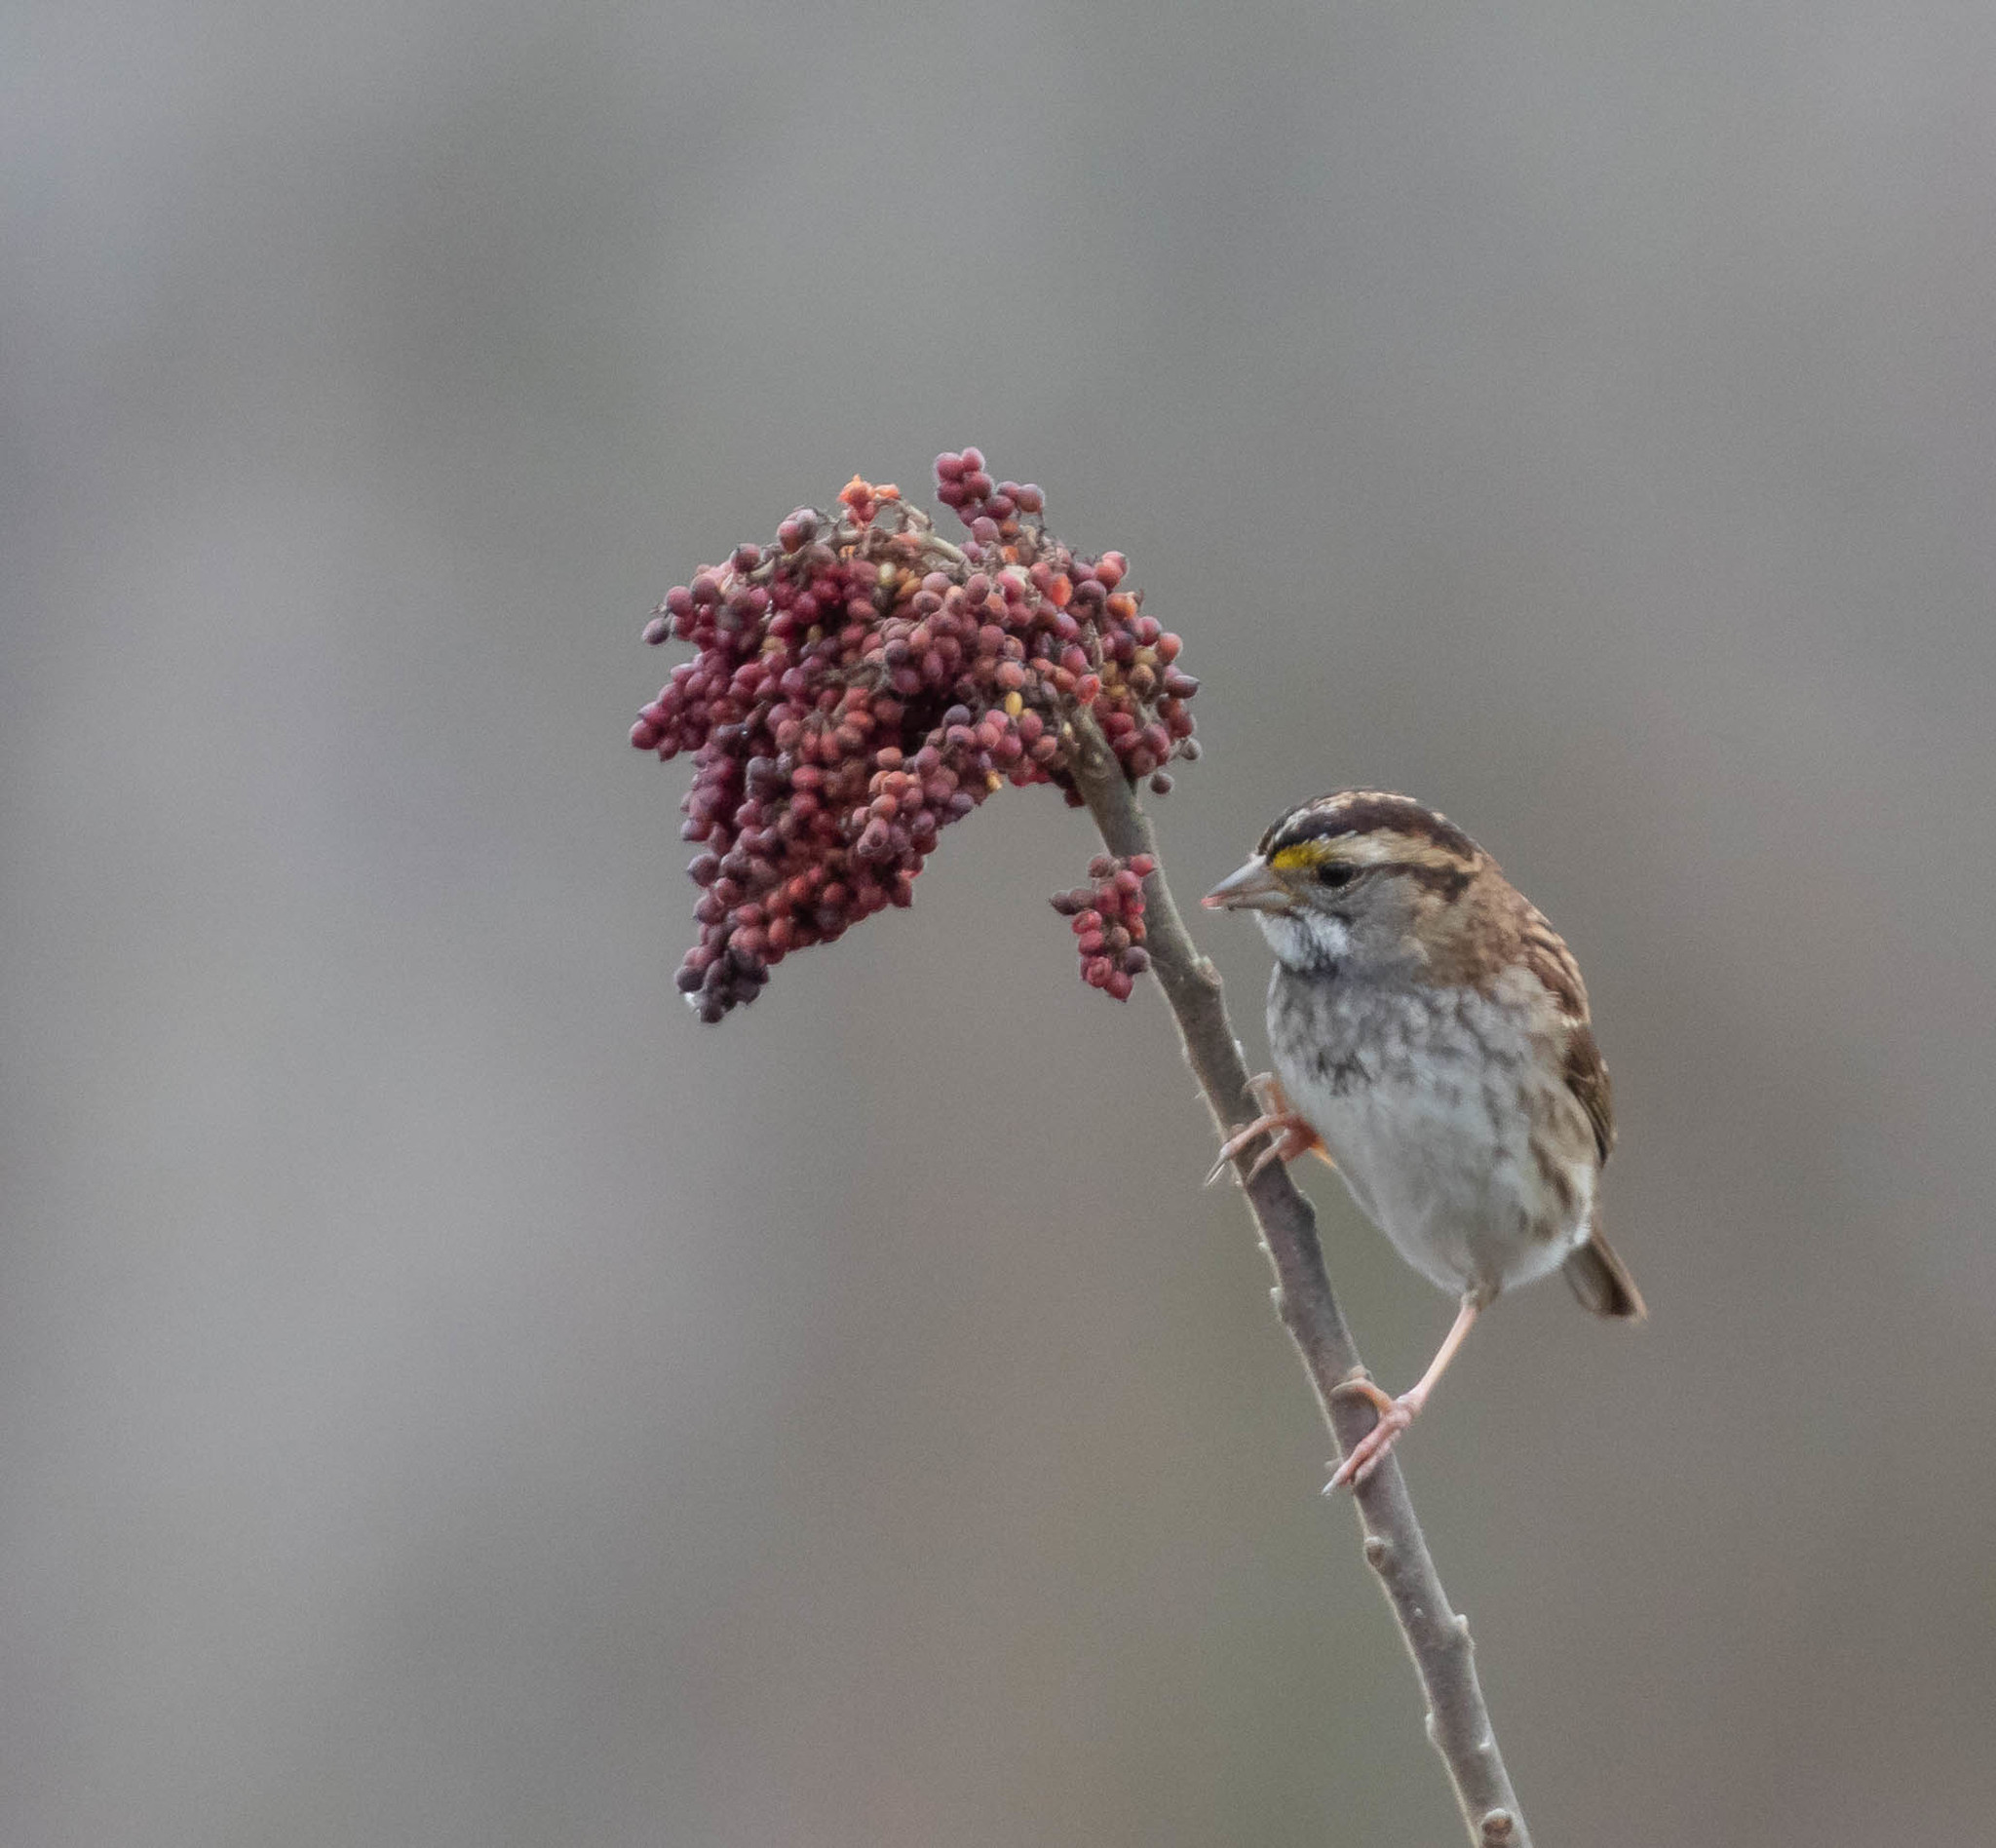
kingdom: Animalia
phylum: Chordata
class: Aves
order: Passeriformes
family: Passerellidae
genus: Zonotrichia
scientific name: Zonotrichia albicollis
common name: White-throated sparrow
